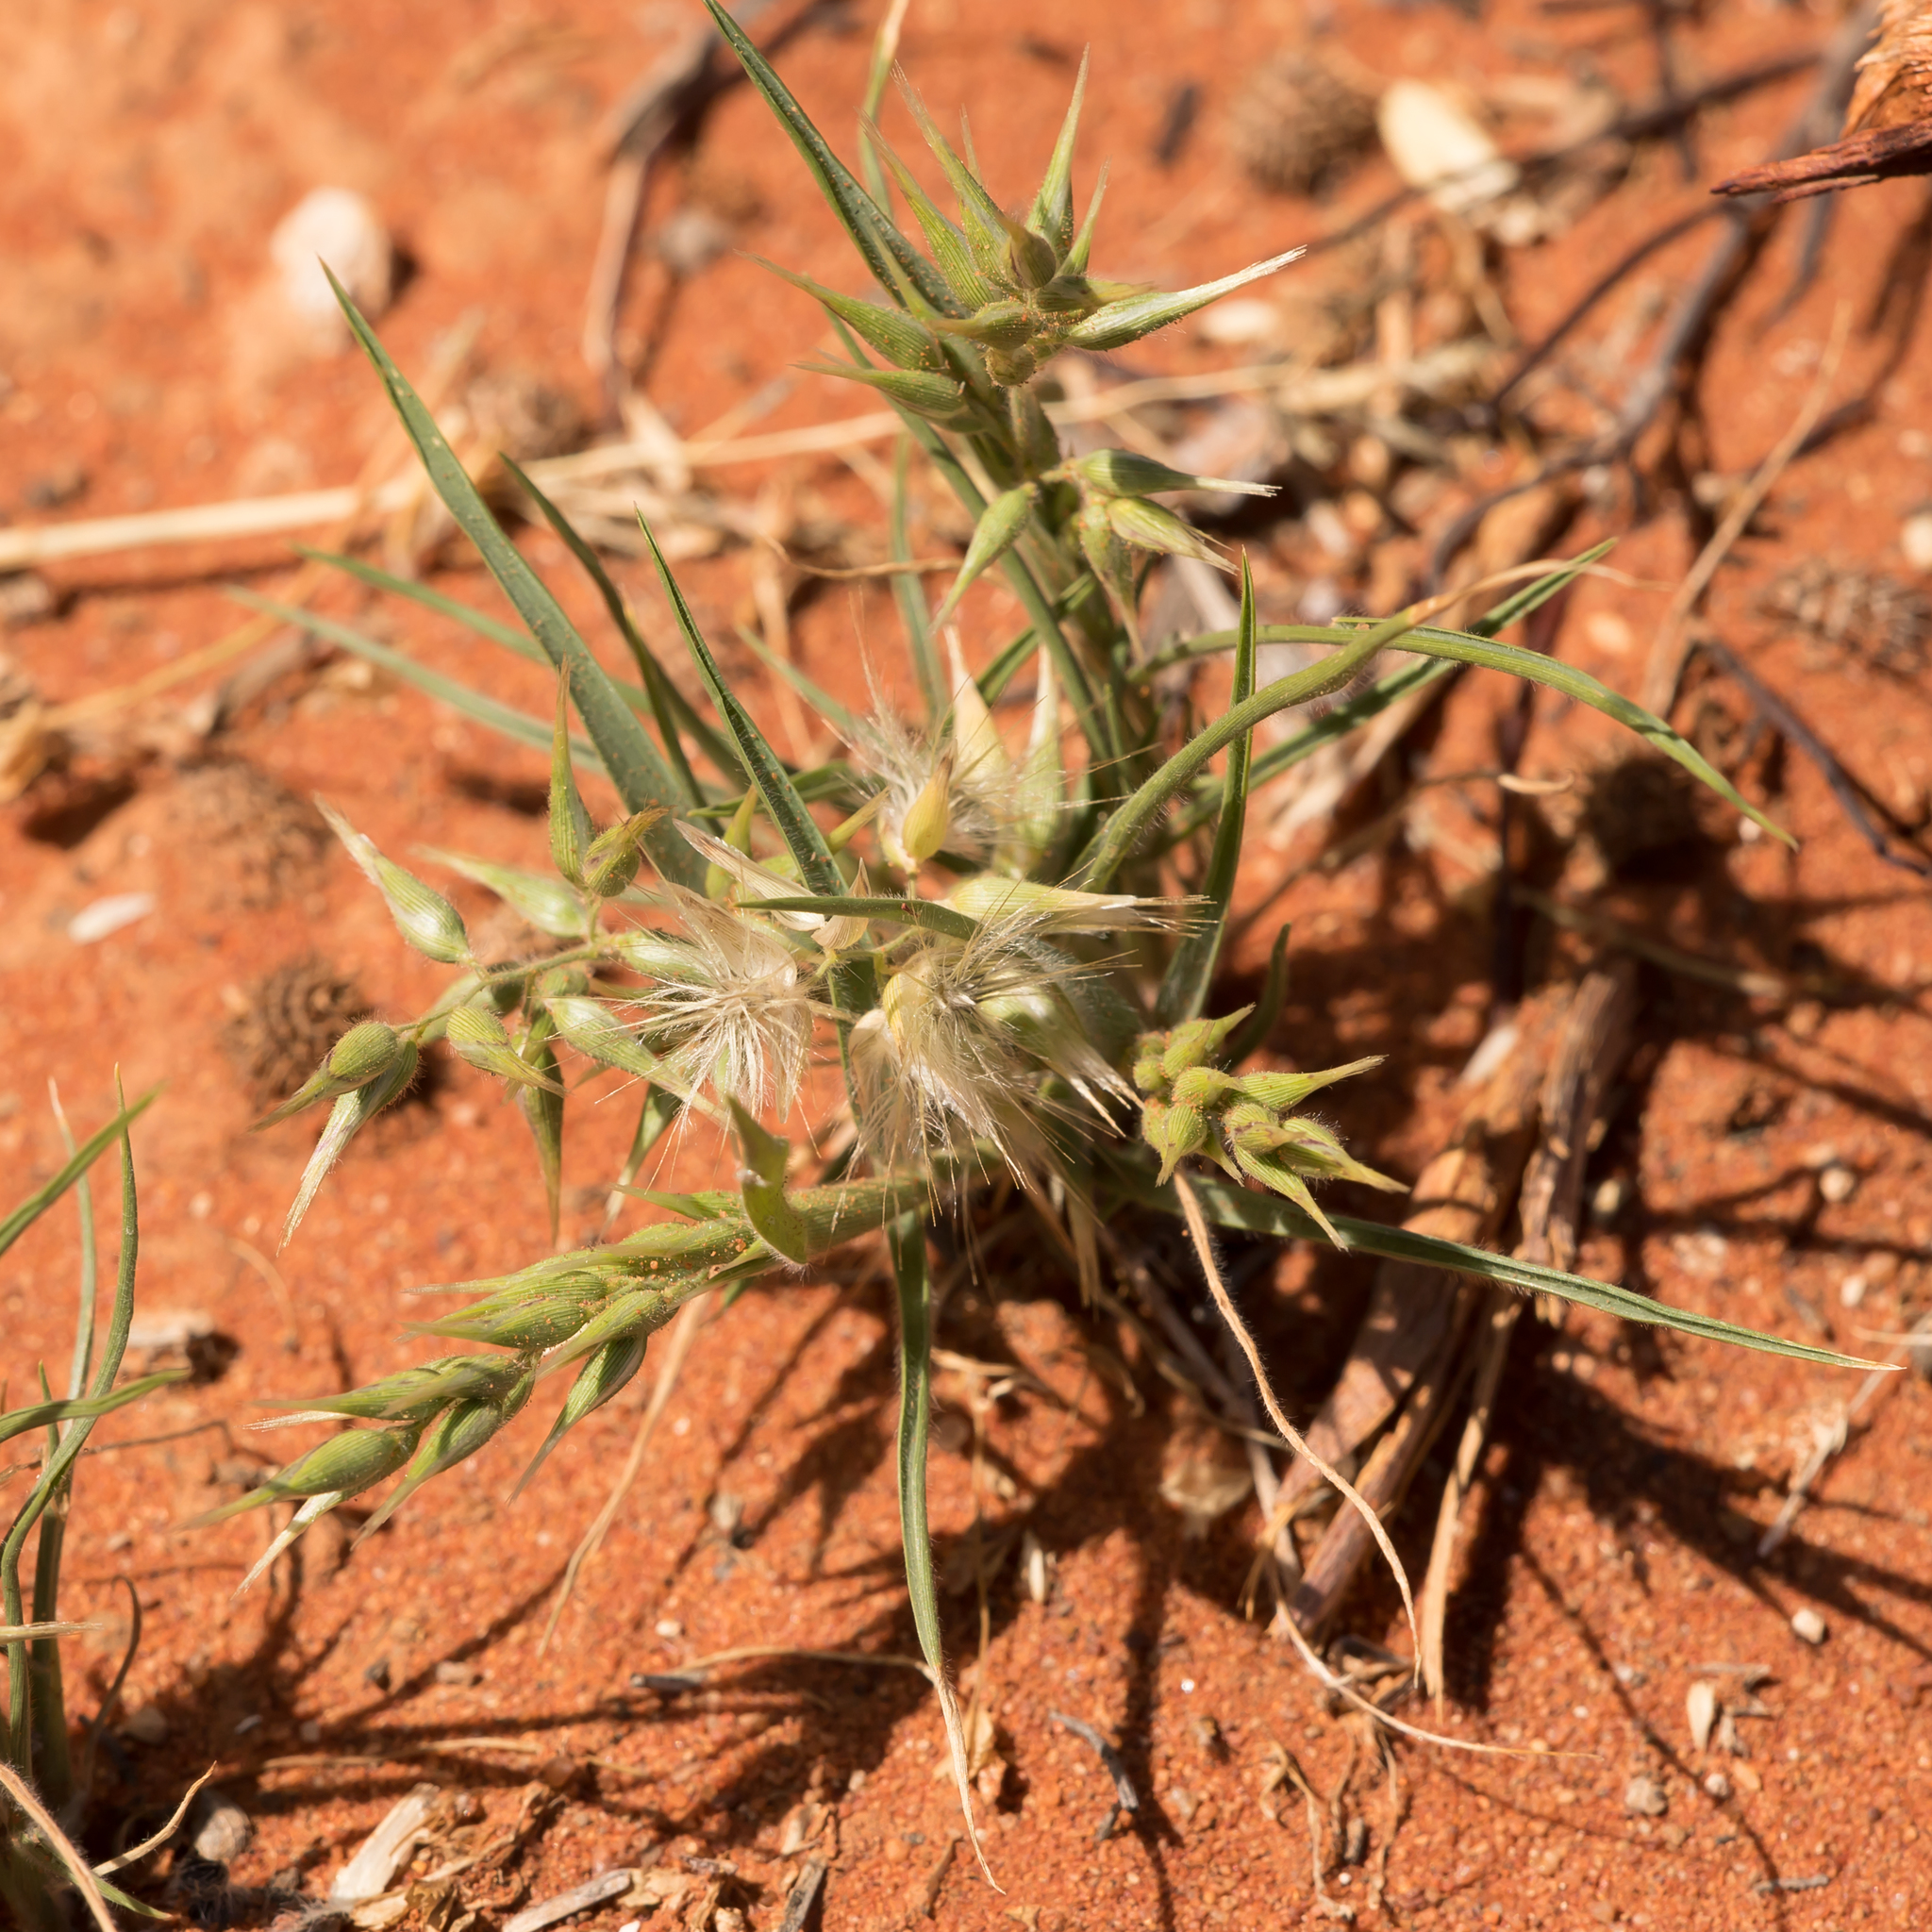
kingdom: Plantae
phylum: Tracheophyta
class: Liliopsida
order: Poales
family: Poaceae
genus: Enneapogon
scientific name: Enneapogon avenaceus
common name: Hairy oat grass
